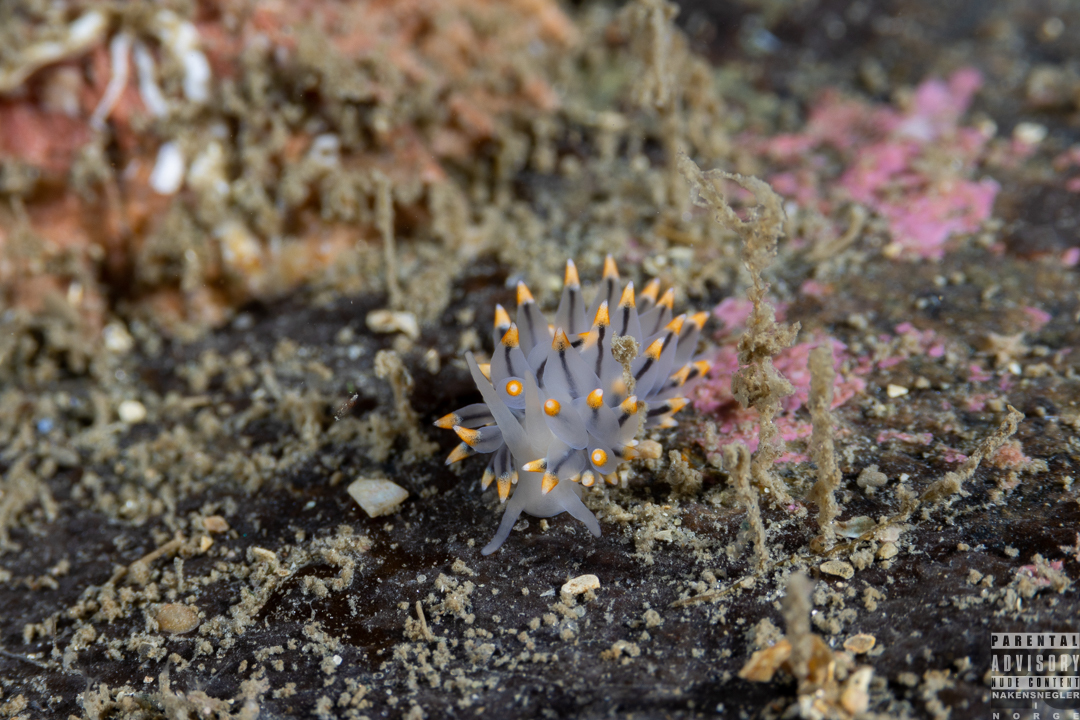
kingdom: Animalia
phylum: Mollusca
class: Gastropoda
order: Nudibranchia
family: Eubranchidae
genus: Eubranchus
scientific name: Eubranchus tricolor
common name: Painted balloon aeolis
